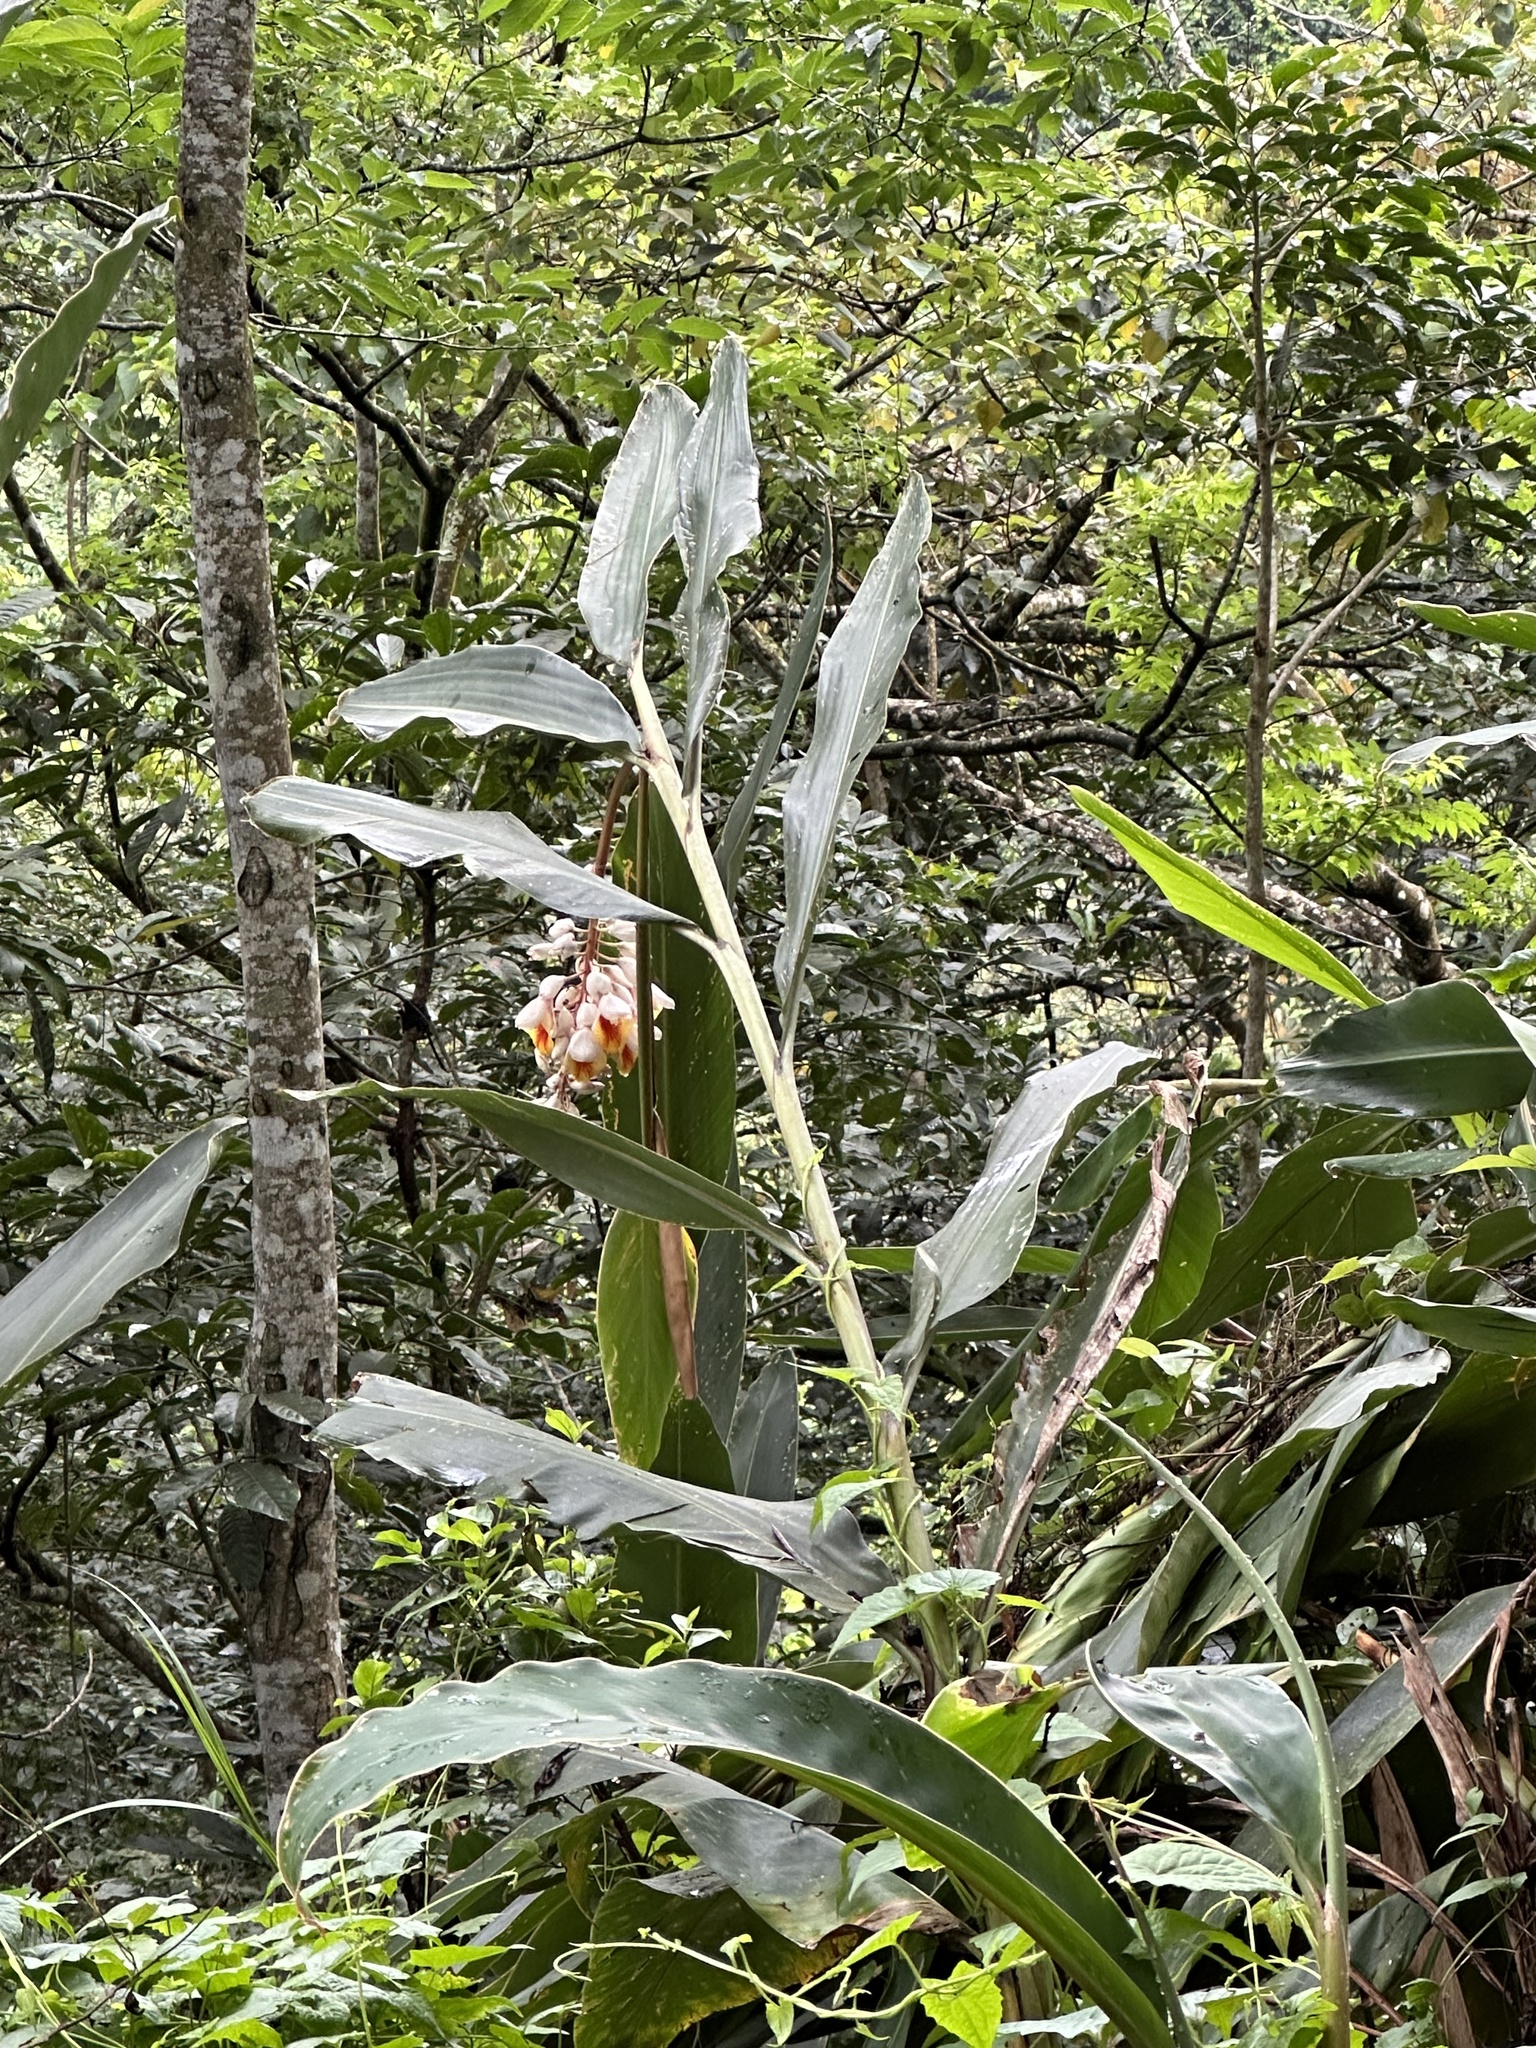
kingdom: Plantae
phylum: Tracheophyta
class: Liliopsida
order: Zingiberales
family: Zingiberaceae
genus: Alpinia
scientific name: Alpinia zerumbet
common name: Shellplant
